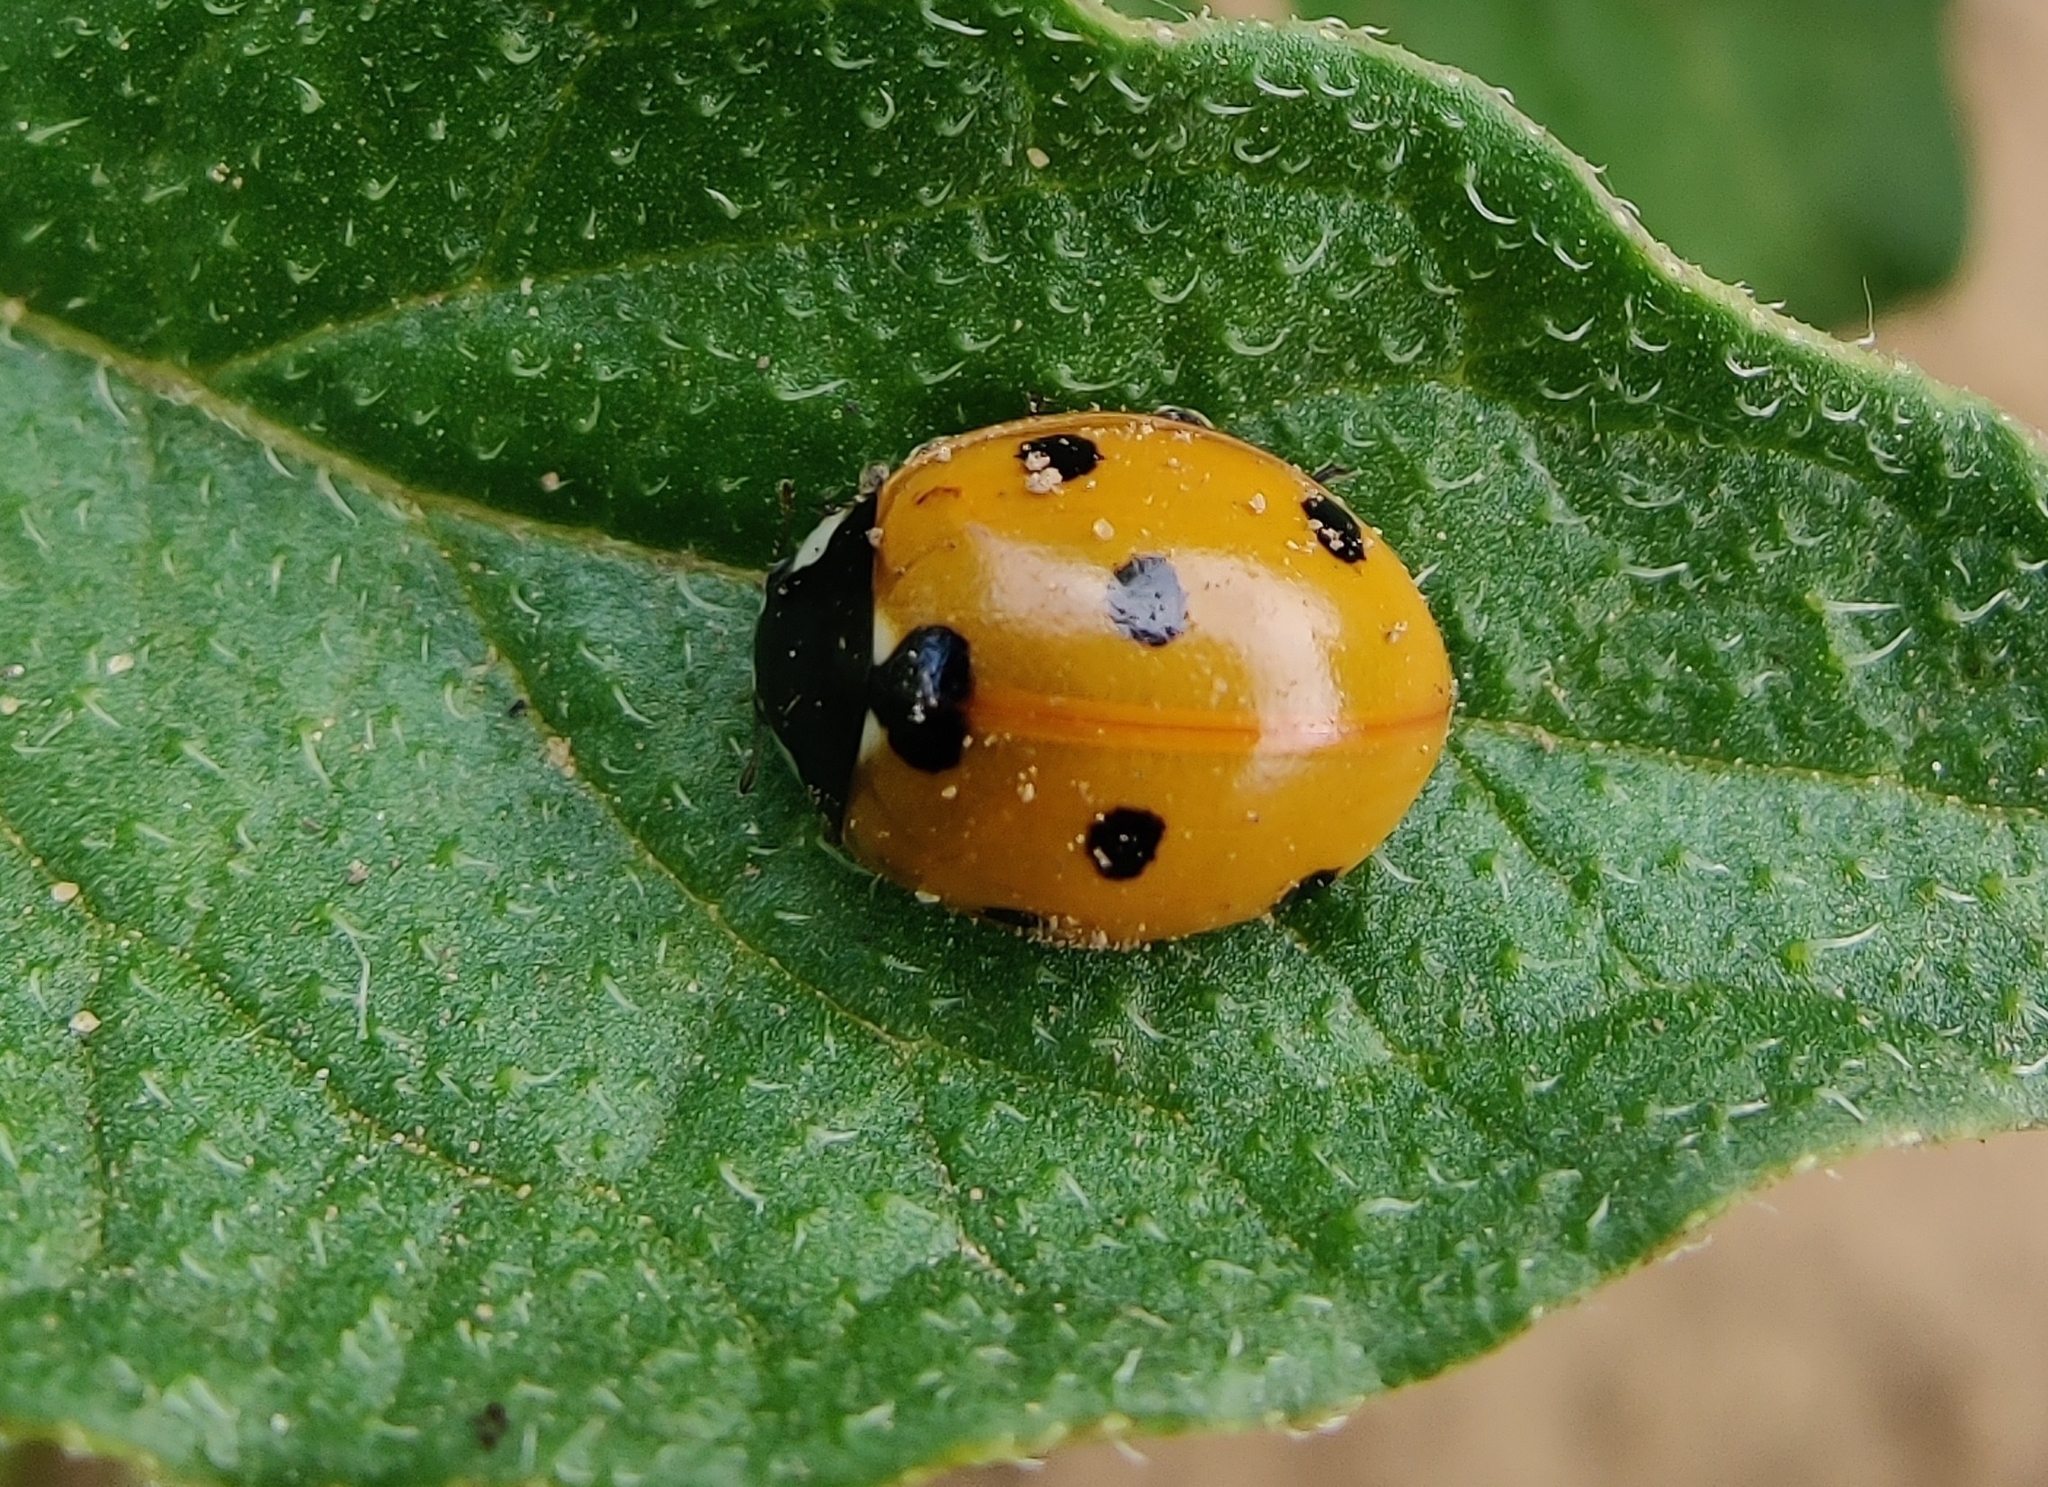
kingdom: Animalia
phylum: Arthropoda
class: Insecta
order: Coleoptera
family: Coccinellidae
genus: Coccinella
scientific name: Coccinella septempunctata
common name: Sevenspotted lady beetle
